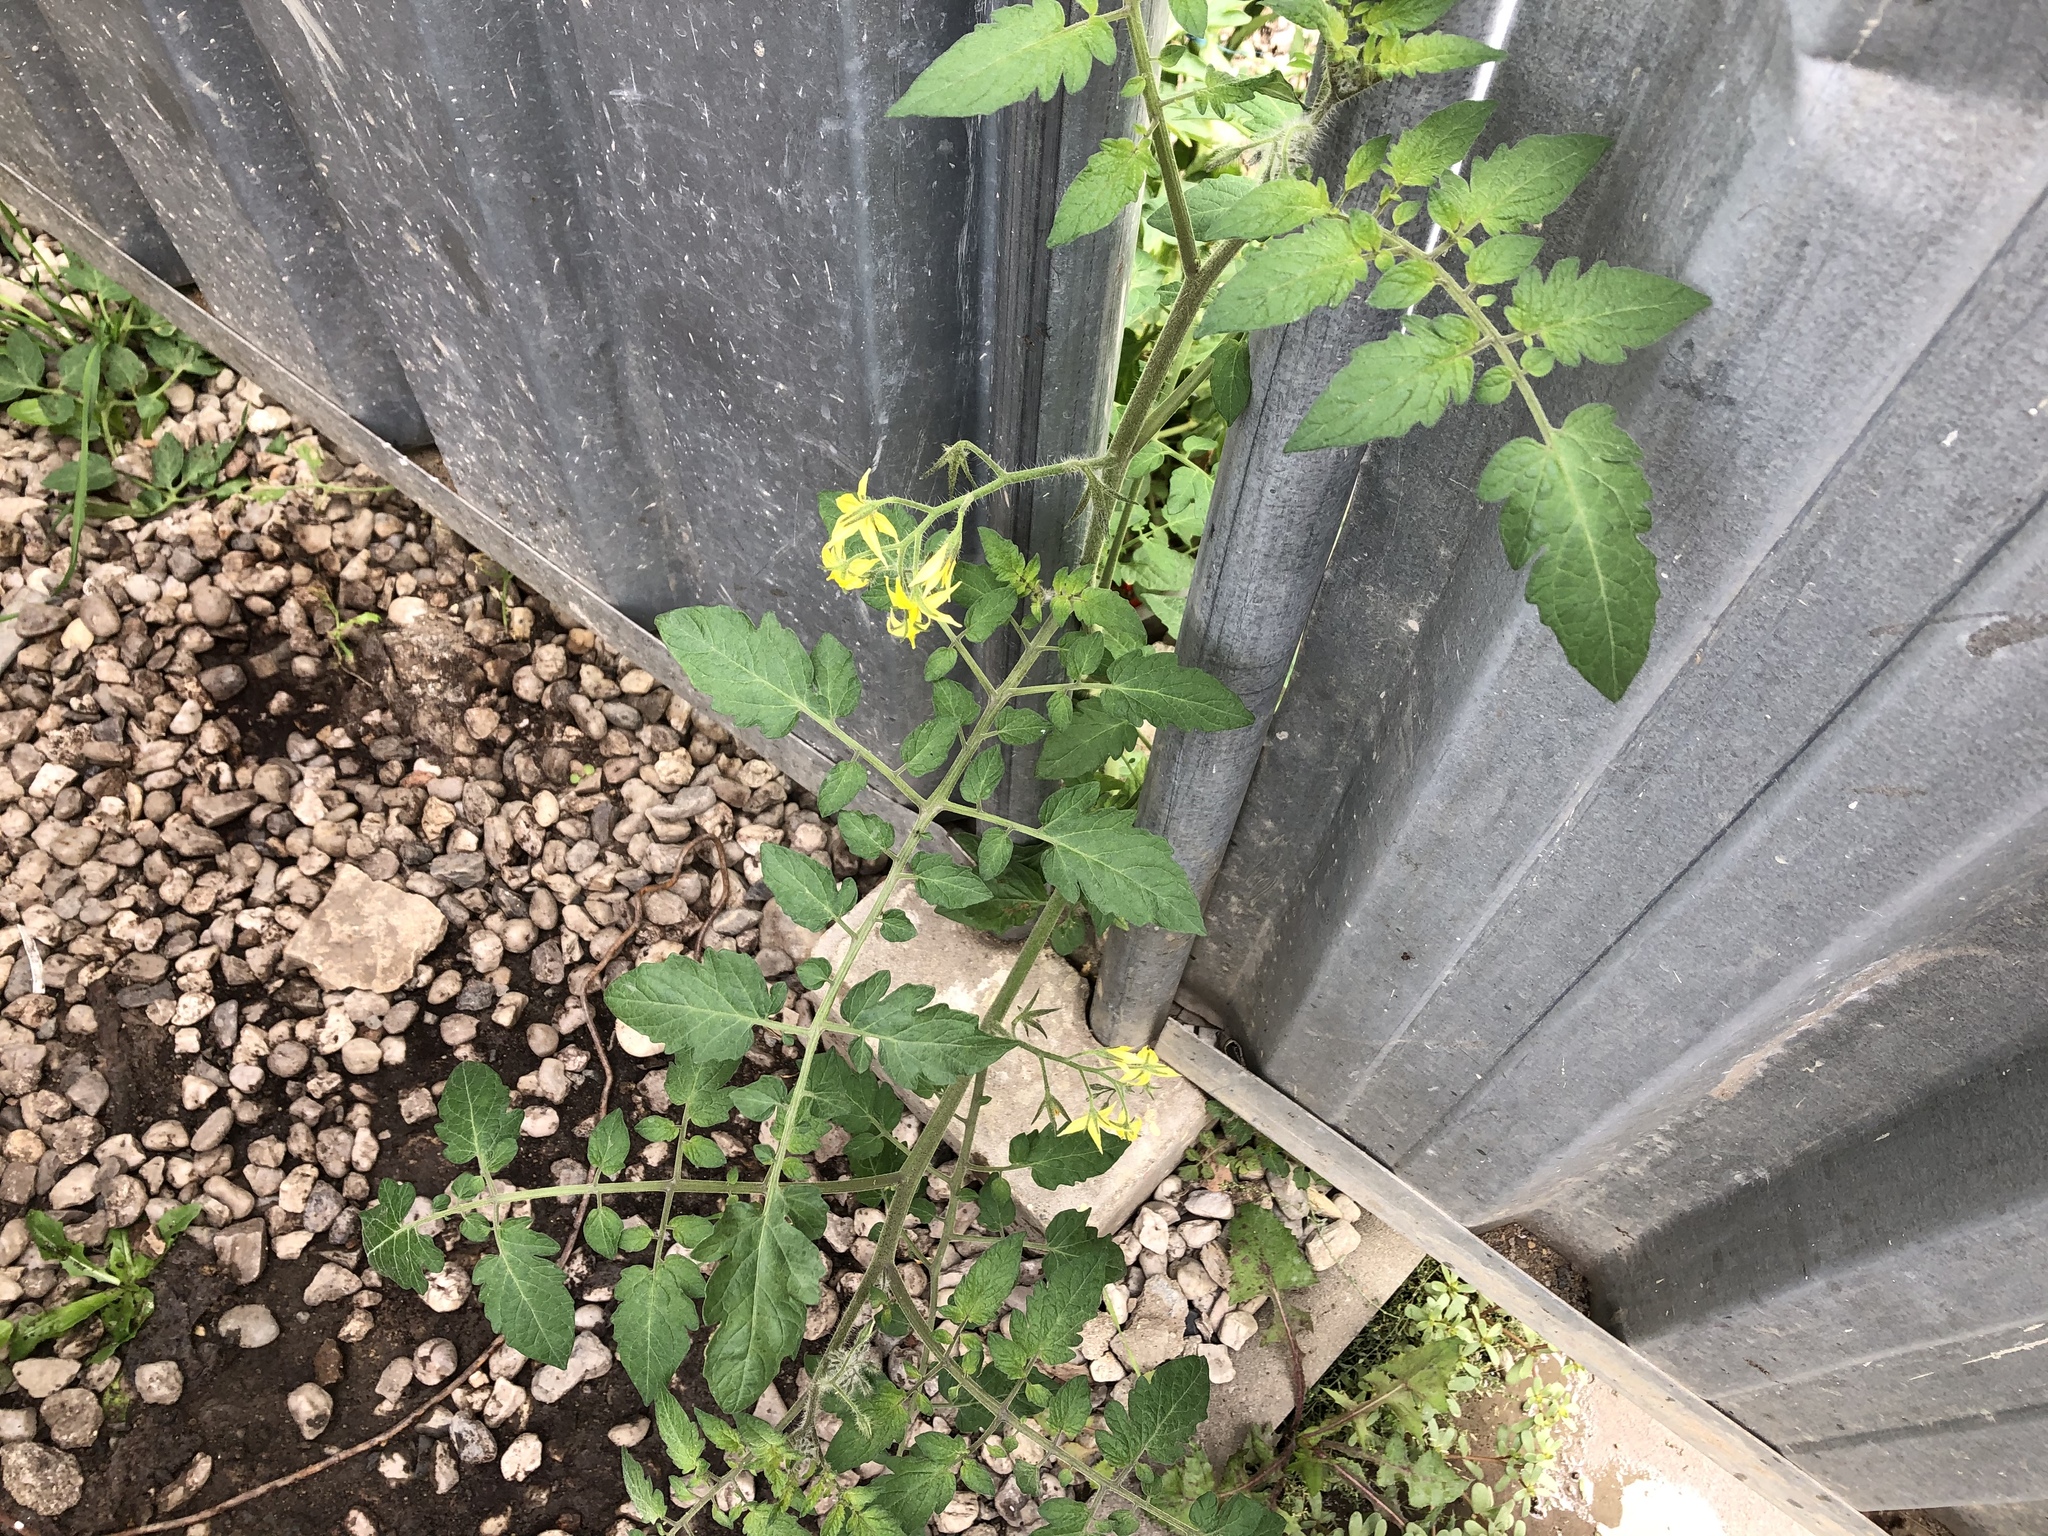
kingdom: Plantae
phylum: Tracheophyta
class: Magnoliopsida
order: Solanales
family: Solanaceae
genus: Solanum
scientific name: Solanum lycopersicum
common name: Garden tomato
